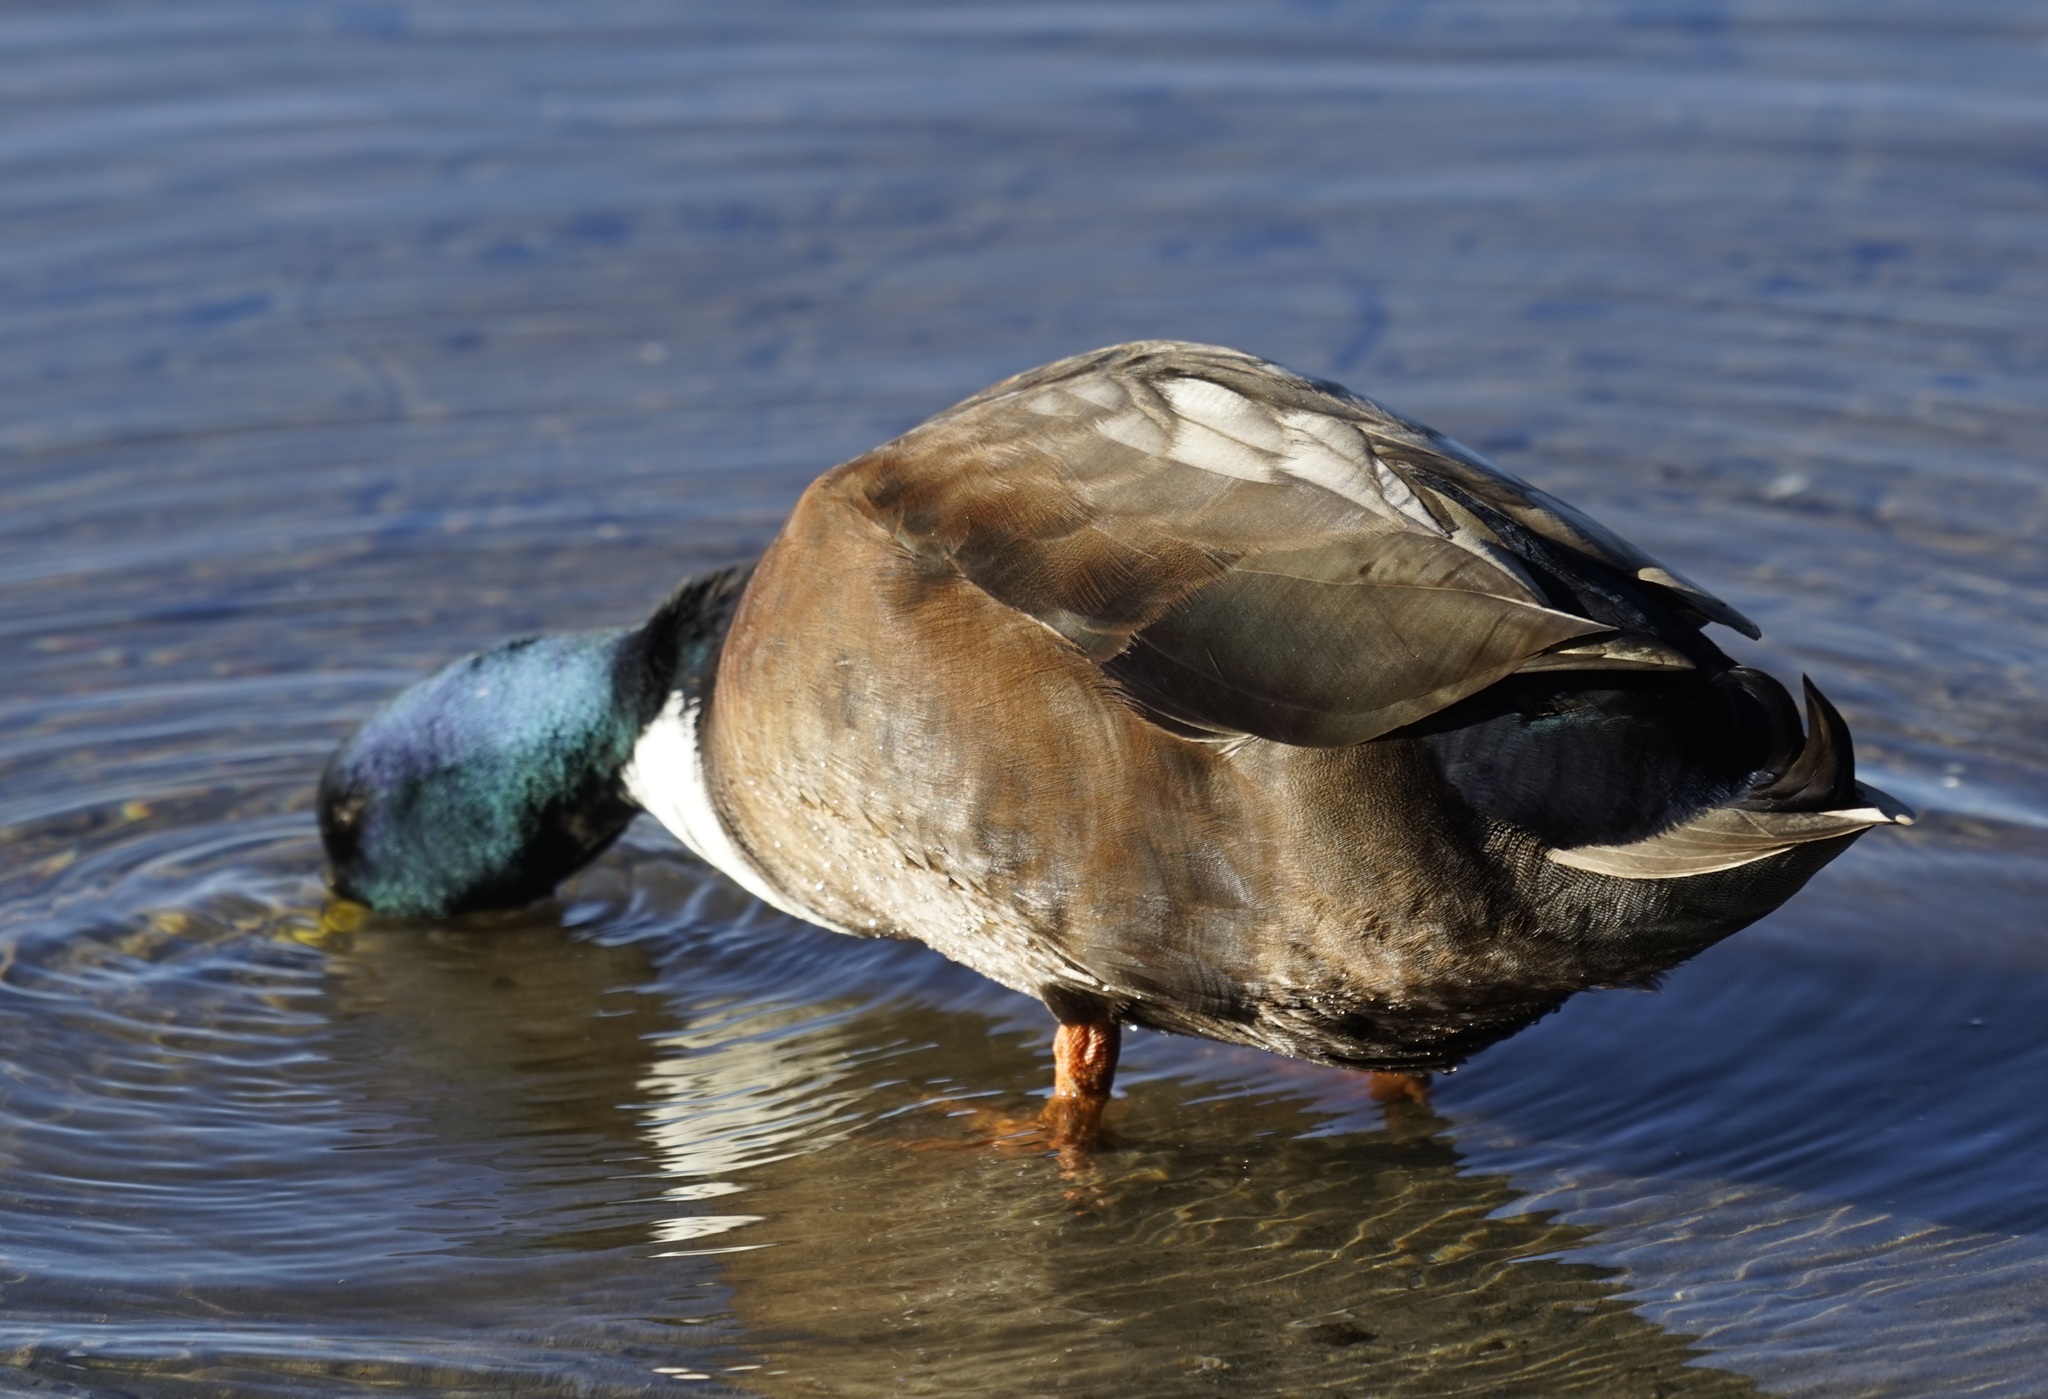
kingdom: Animalia
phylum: Chordata
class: Aves
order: Anseriformes
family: Anatidae
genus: Anas
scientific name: Anas platyrhynchos
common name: Mallard
